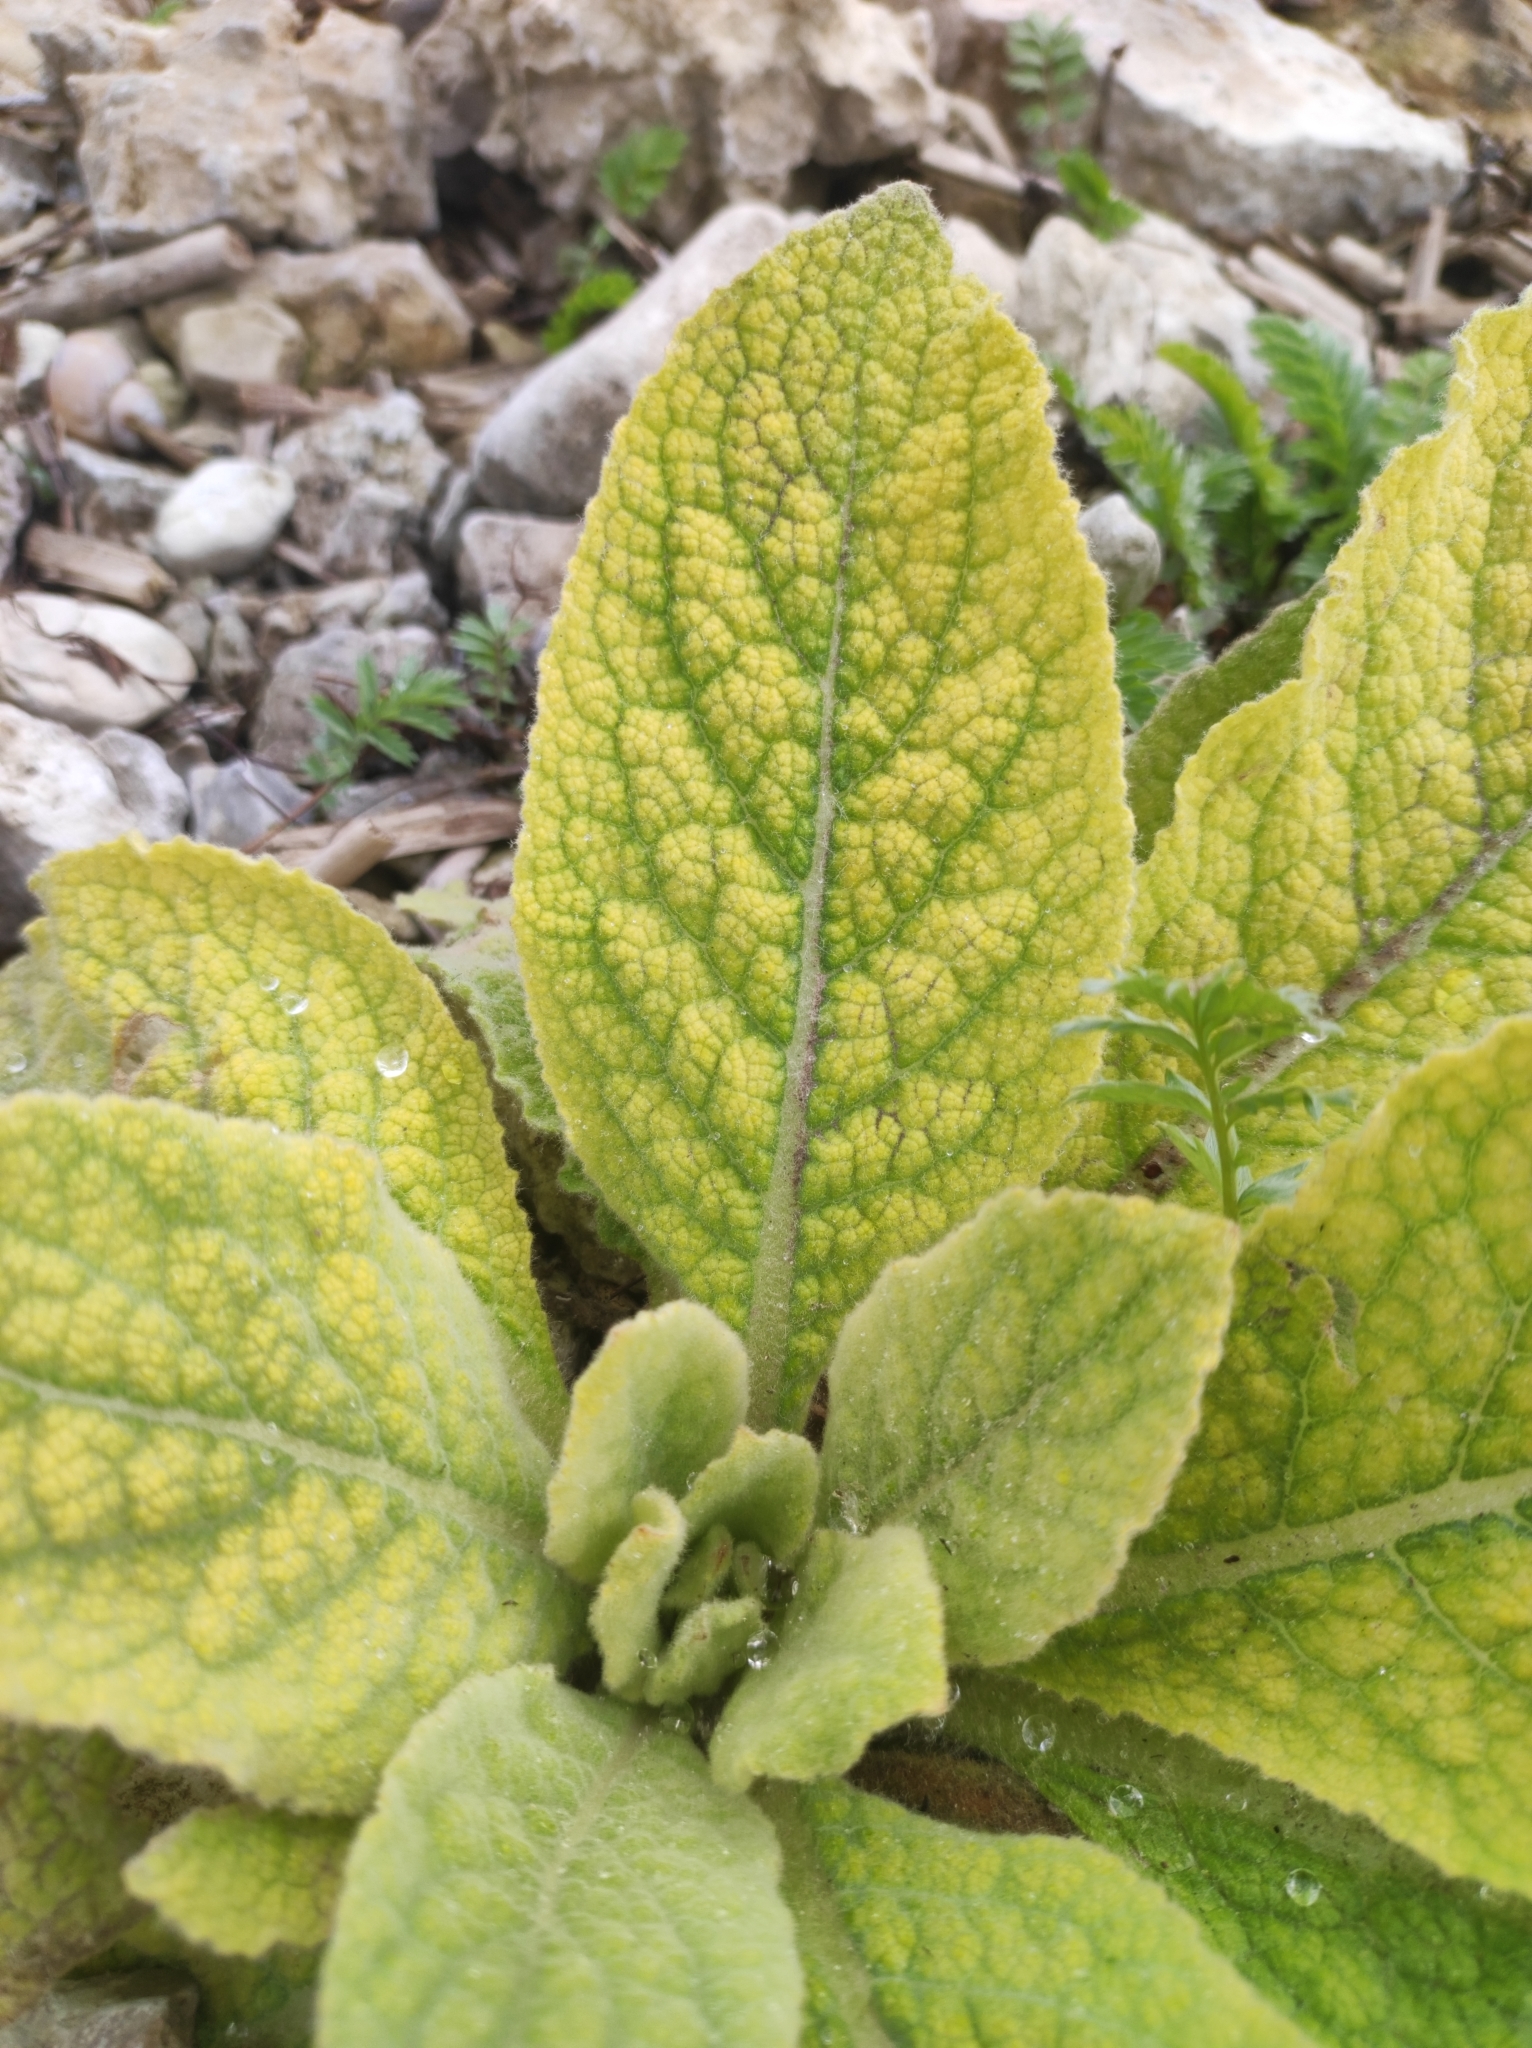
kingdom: Plantae
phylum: Tracheophyta
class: Magnoliopsida
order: Lamiales
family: Scrophulariaceae
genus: Verbascum
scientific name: Verbascum thapsus
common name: Common mullein
